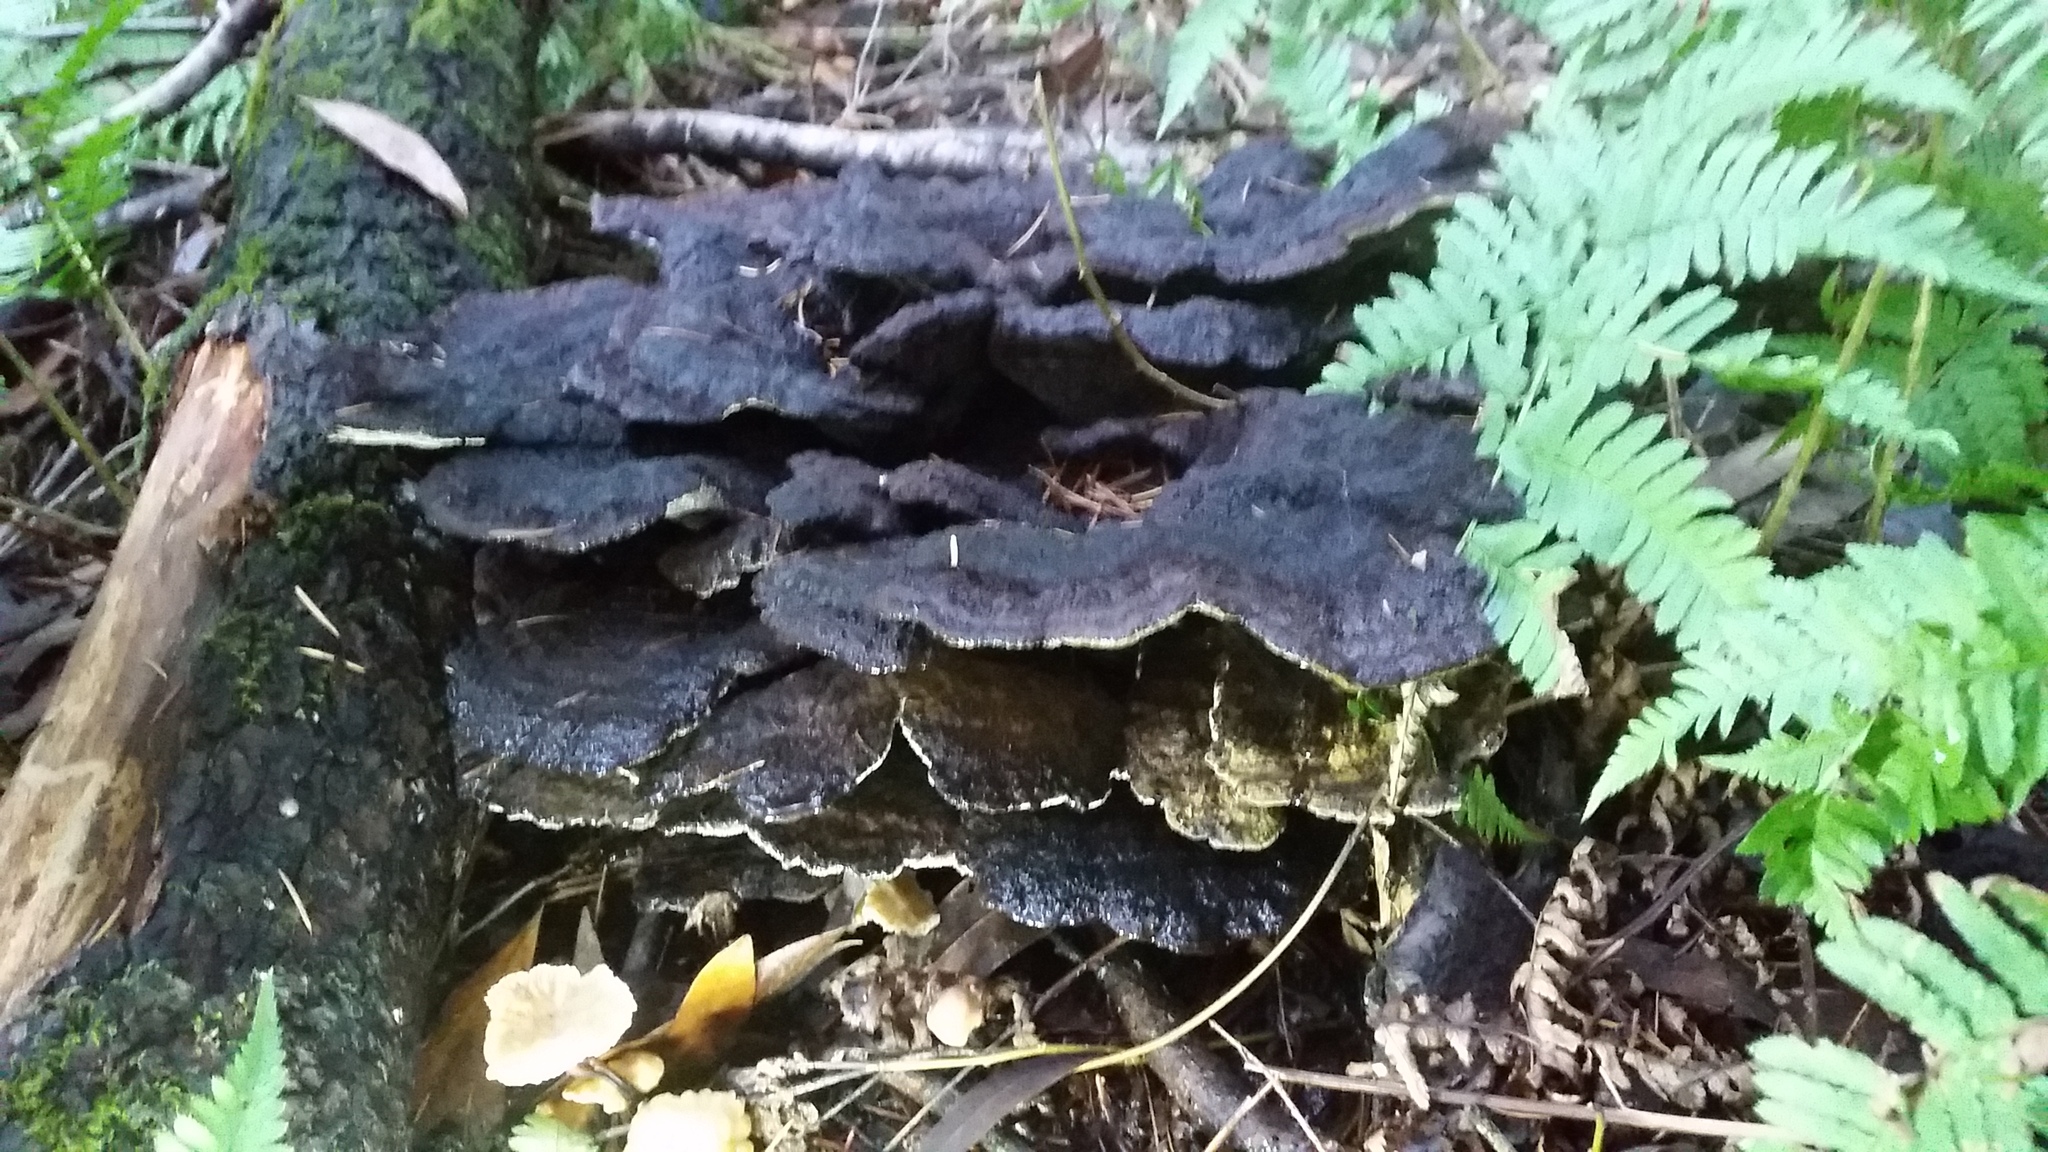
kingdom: Fungi
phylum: Basidiomycota
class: Agaricomycetes
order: Polyporales
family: Laetiporaceae
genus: Phaeolus
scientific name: Phaeolus schweinitzii
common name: Dyer's mazegill
